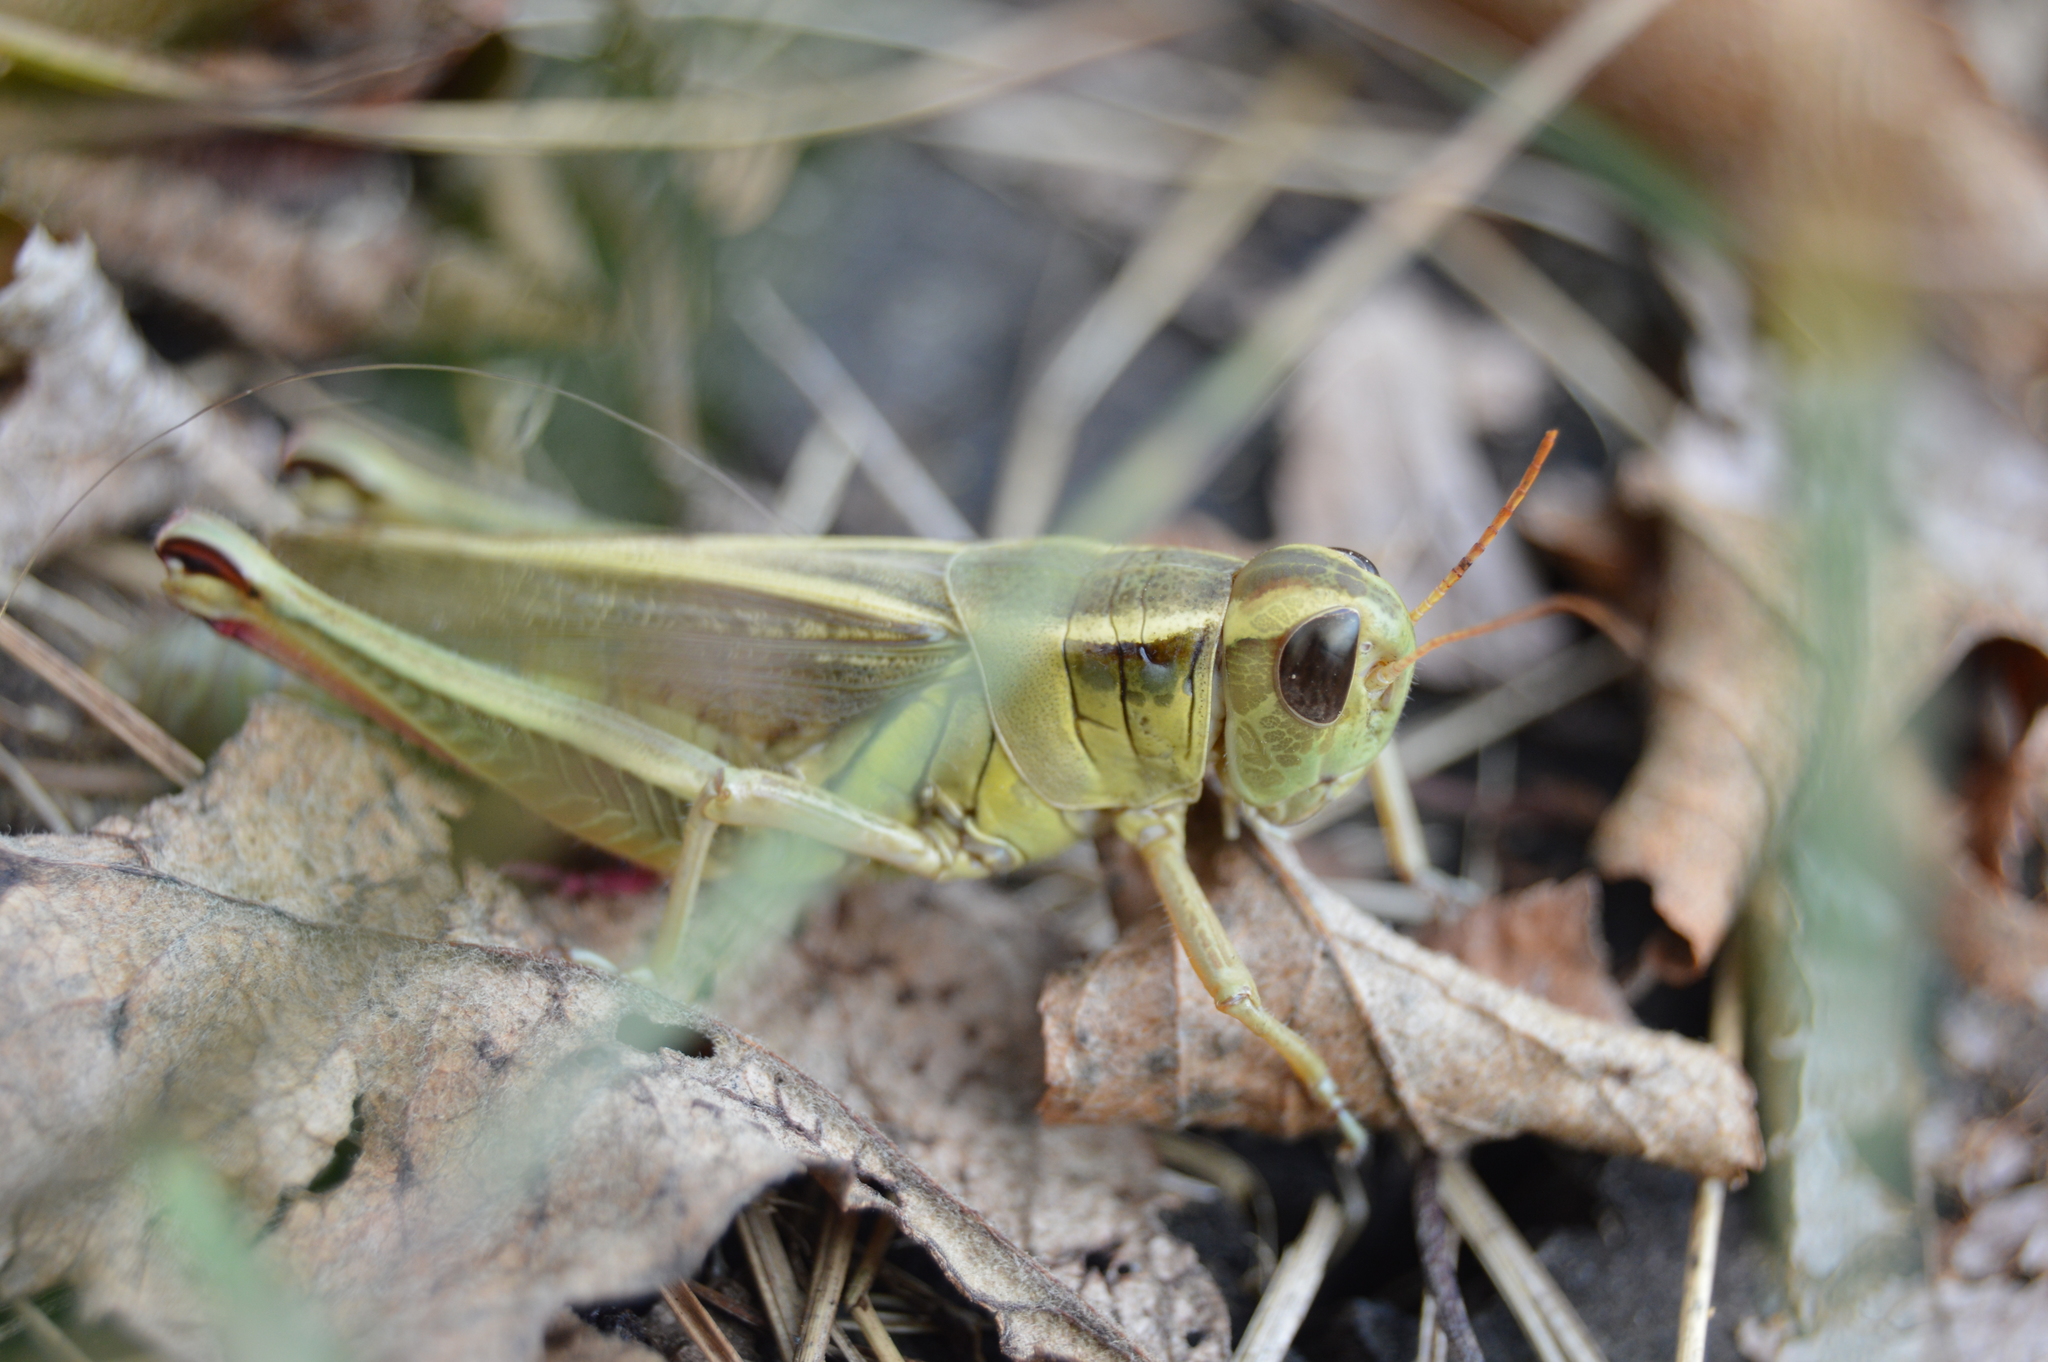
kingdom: Animalia
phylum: Arthropoda
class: Insecta
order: Orthoptera
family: Acrididae
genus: Melanoplus
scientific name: Melanoplus bivittatus
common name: Two-striped grasshopper
